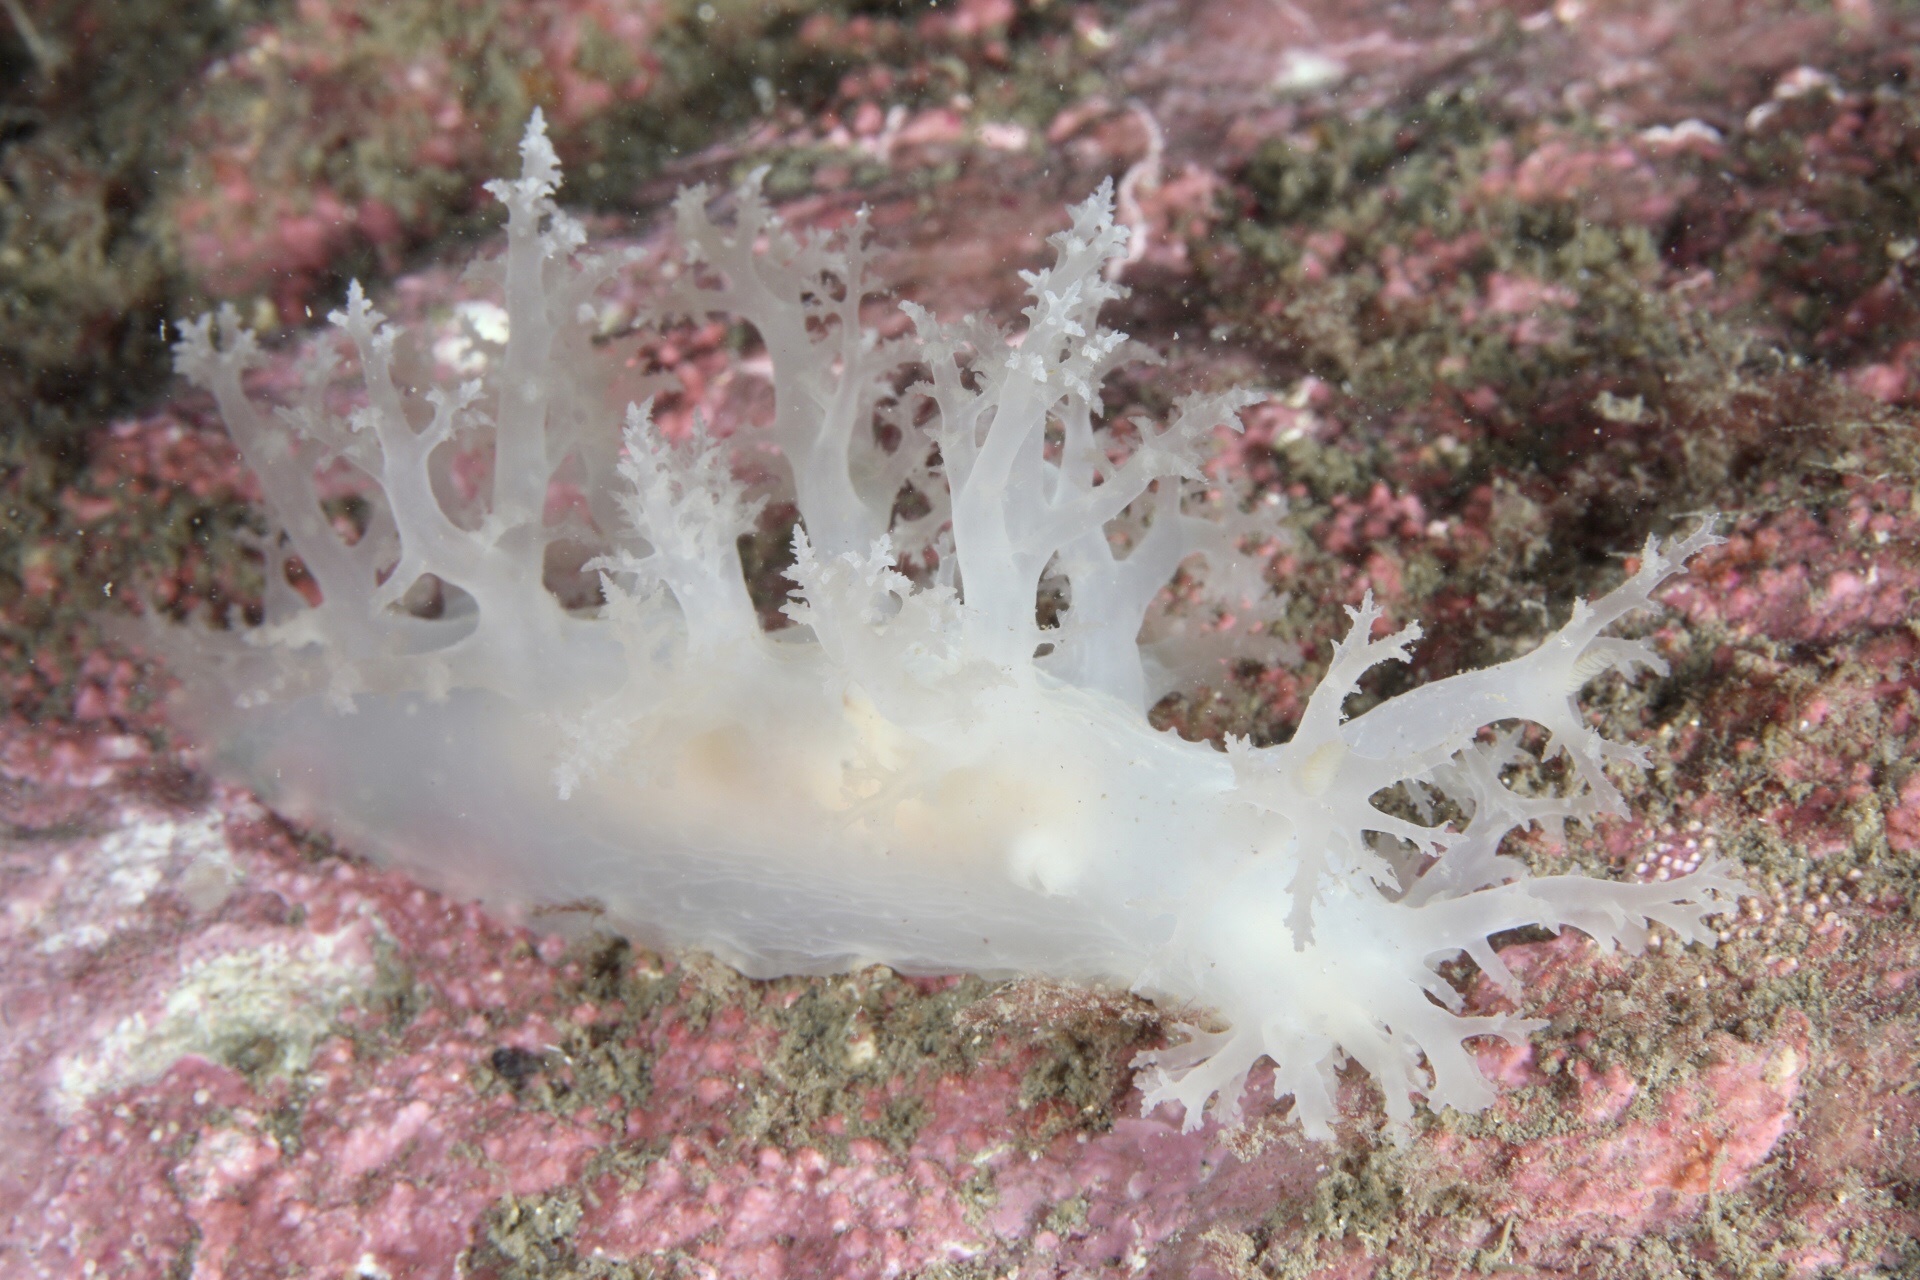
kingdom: Animalia
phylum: Mollusca
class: Gastropoda
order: Nudibranchia
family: Dendronotidae
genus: Dendronotus
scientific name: Dendronotus lacteus
